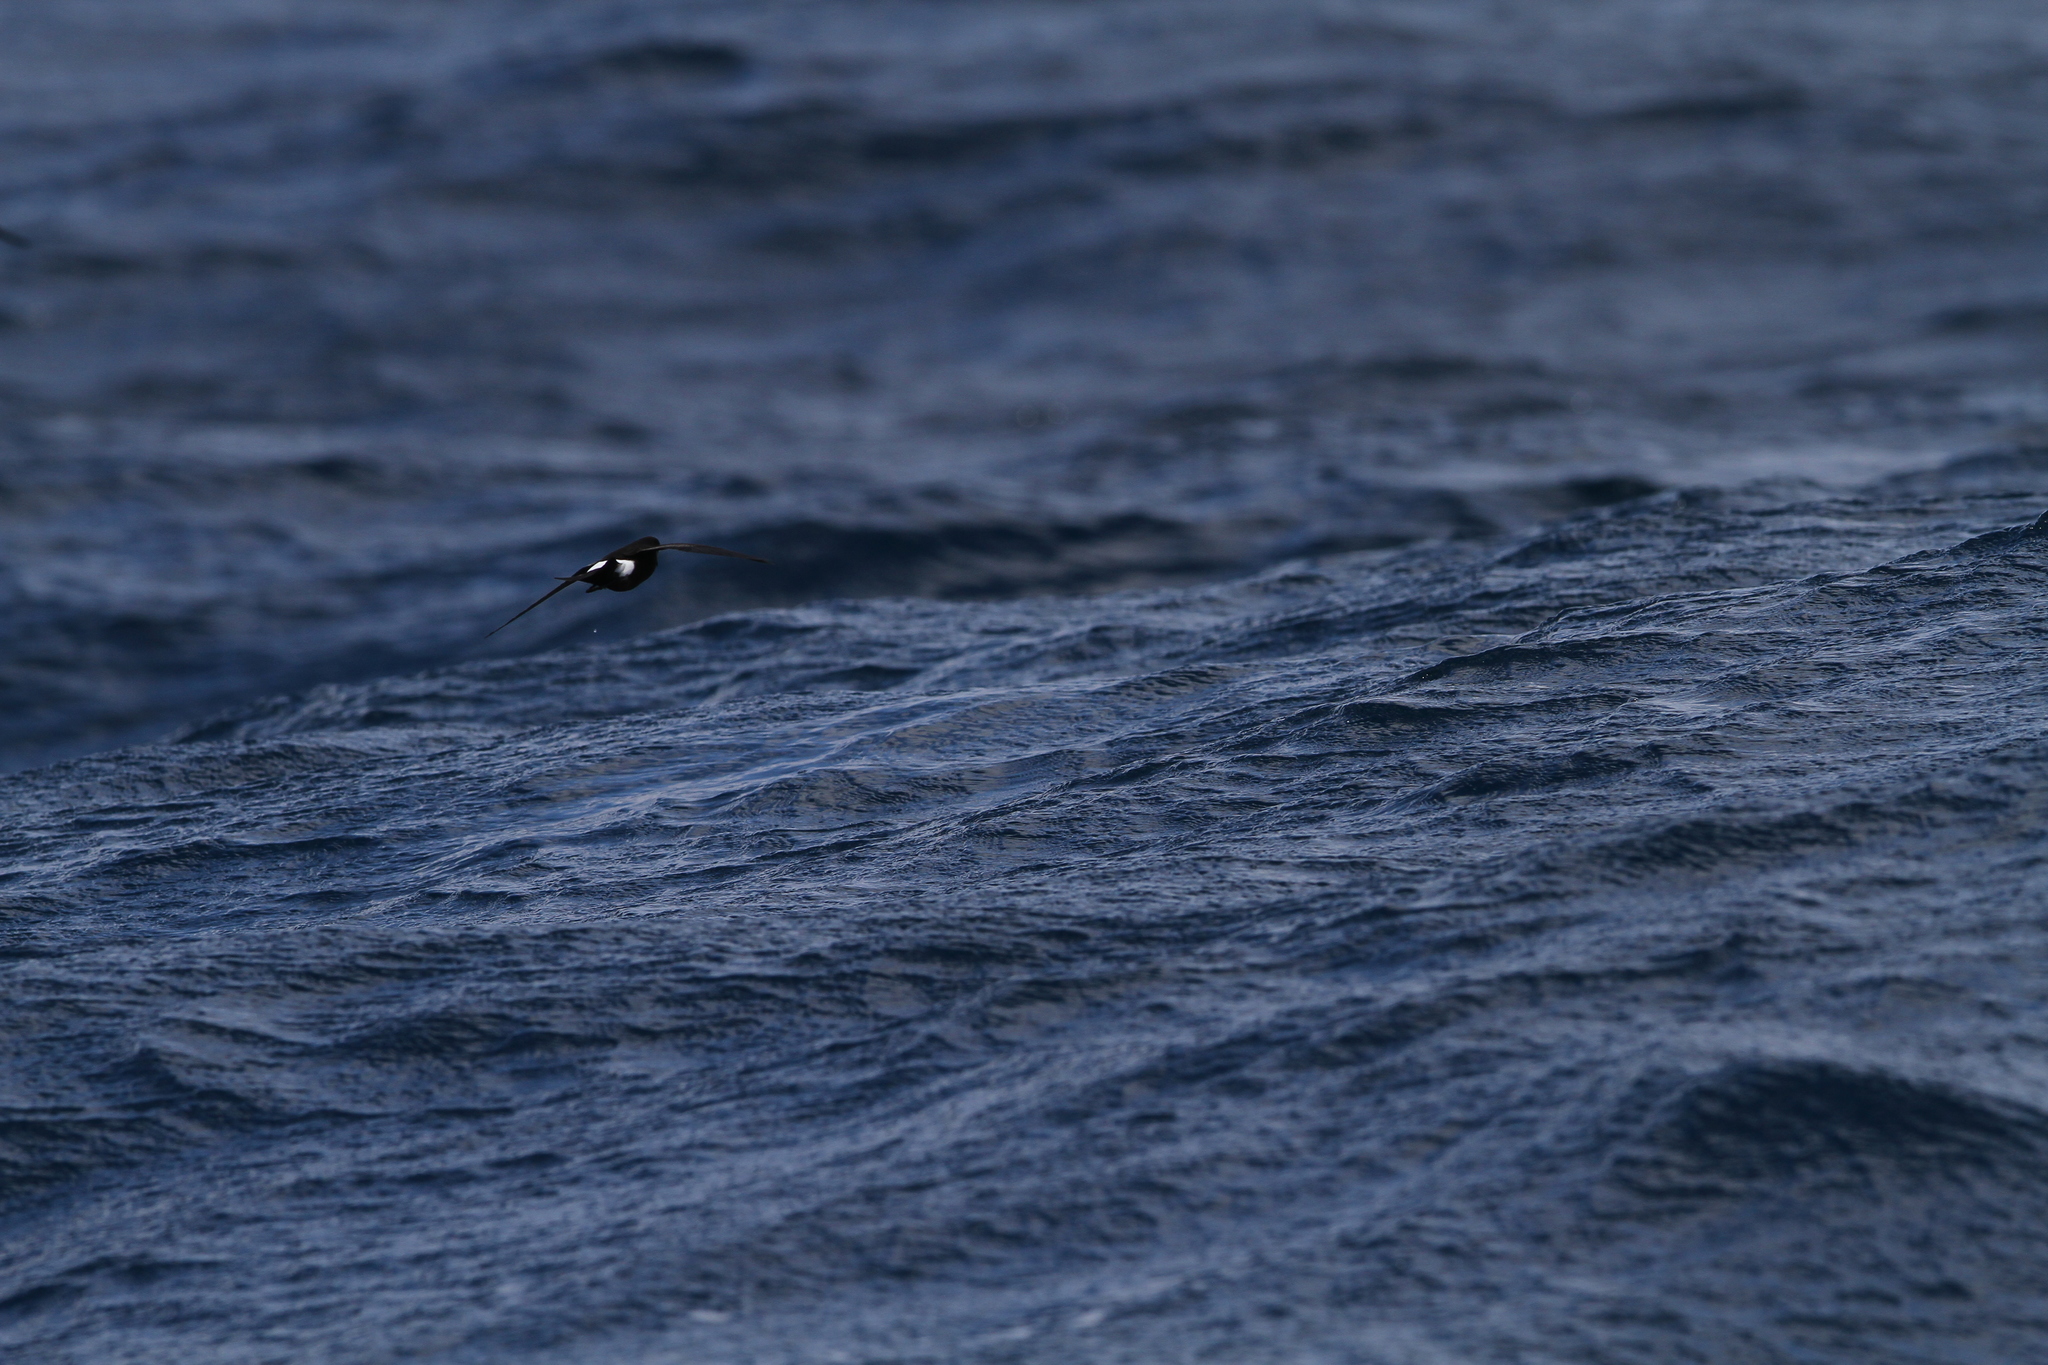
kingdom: Animalia
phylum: Chordata
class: Aves
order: Procellariiformes
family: Hydrobatidae
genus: Oceanites
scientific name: Oceanites oceanicus
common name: Wilson's storm petrel
